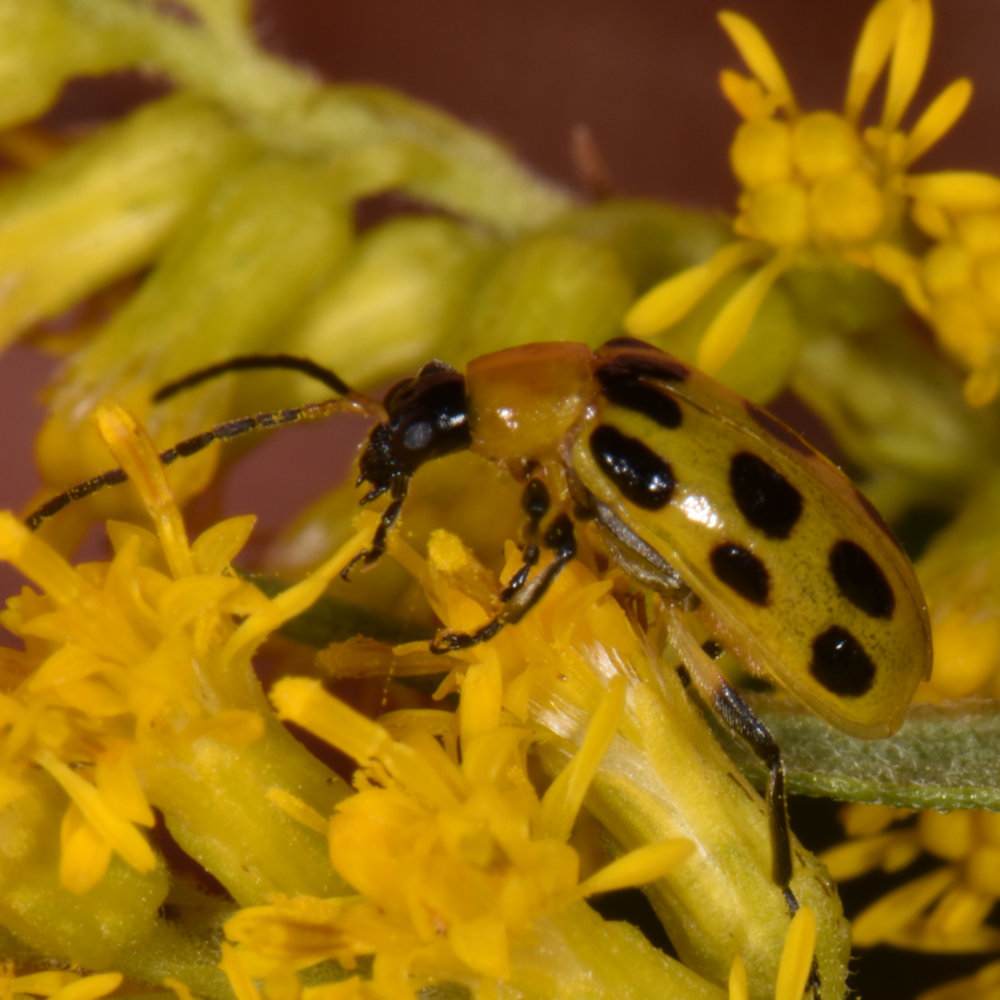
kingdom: Animalia
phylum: Arthropoda
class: Insecta
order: Coleoptera
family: Chrysomelidae
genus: Diabrotica
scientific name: Diabrotica undecimpunctata
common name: Spotted cucumber beetle
